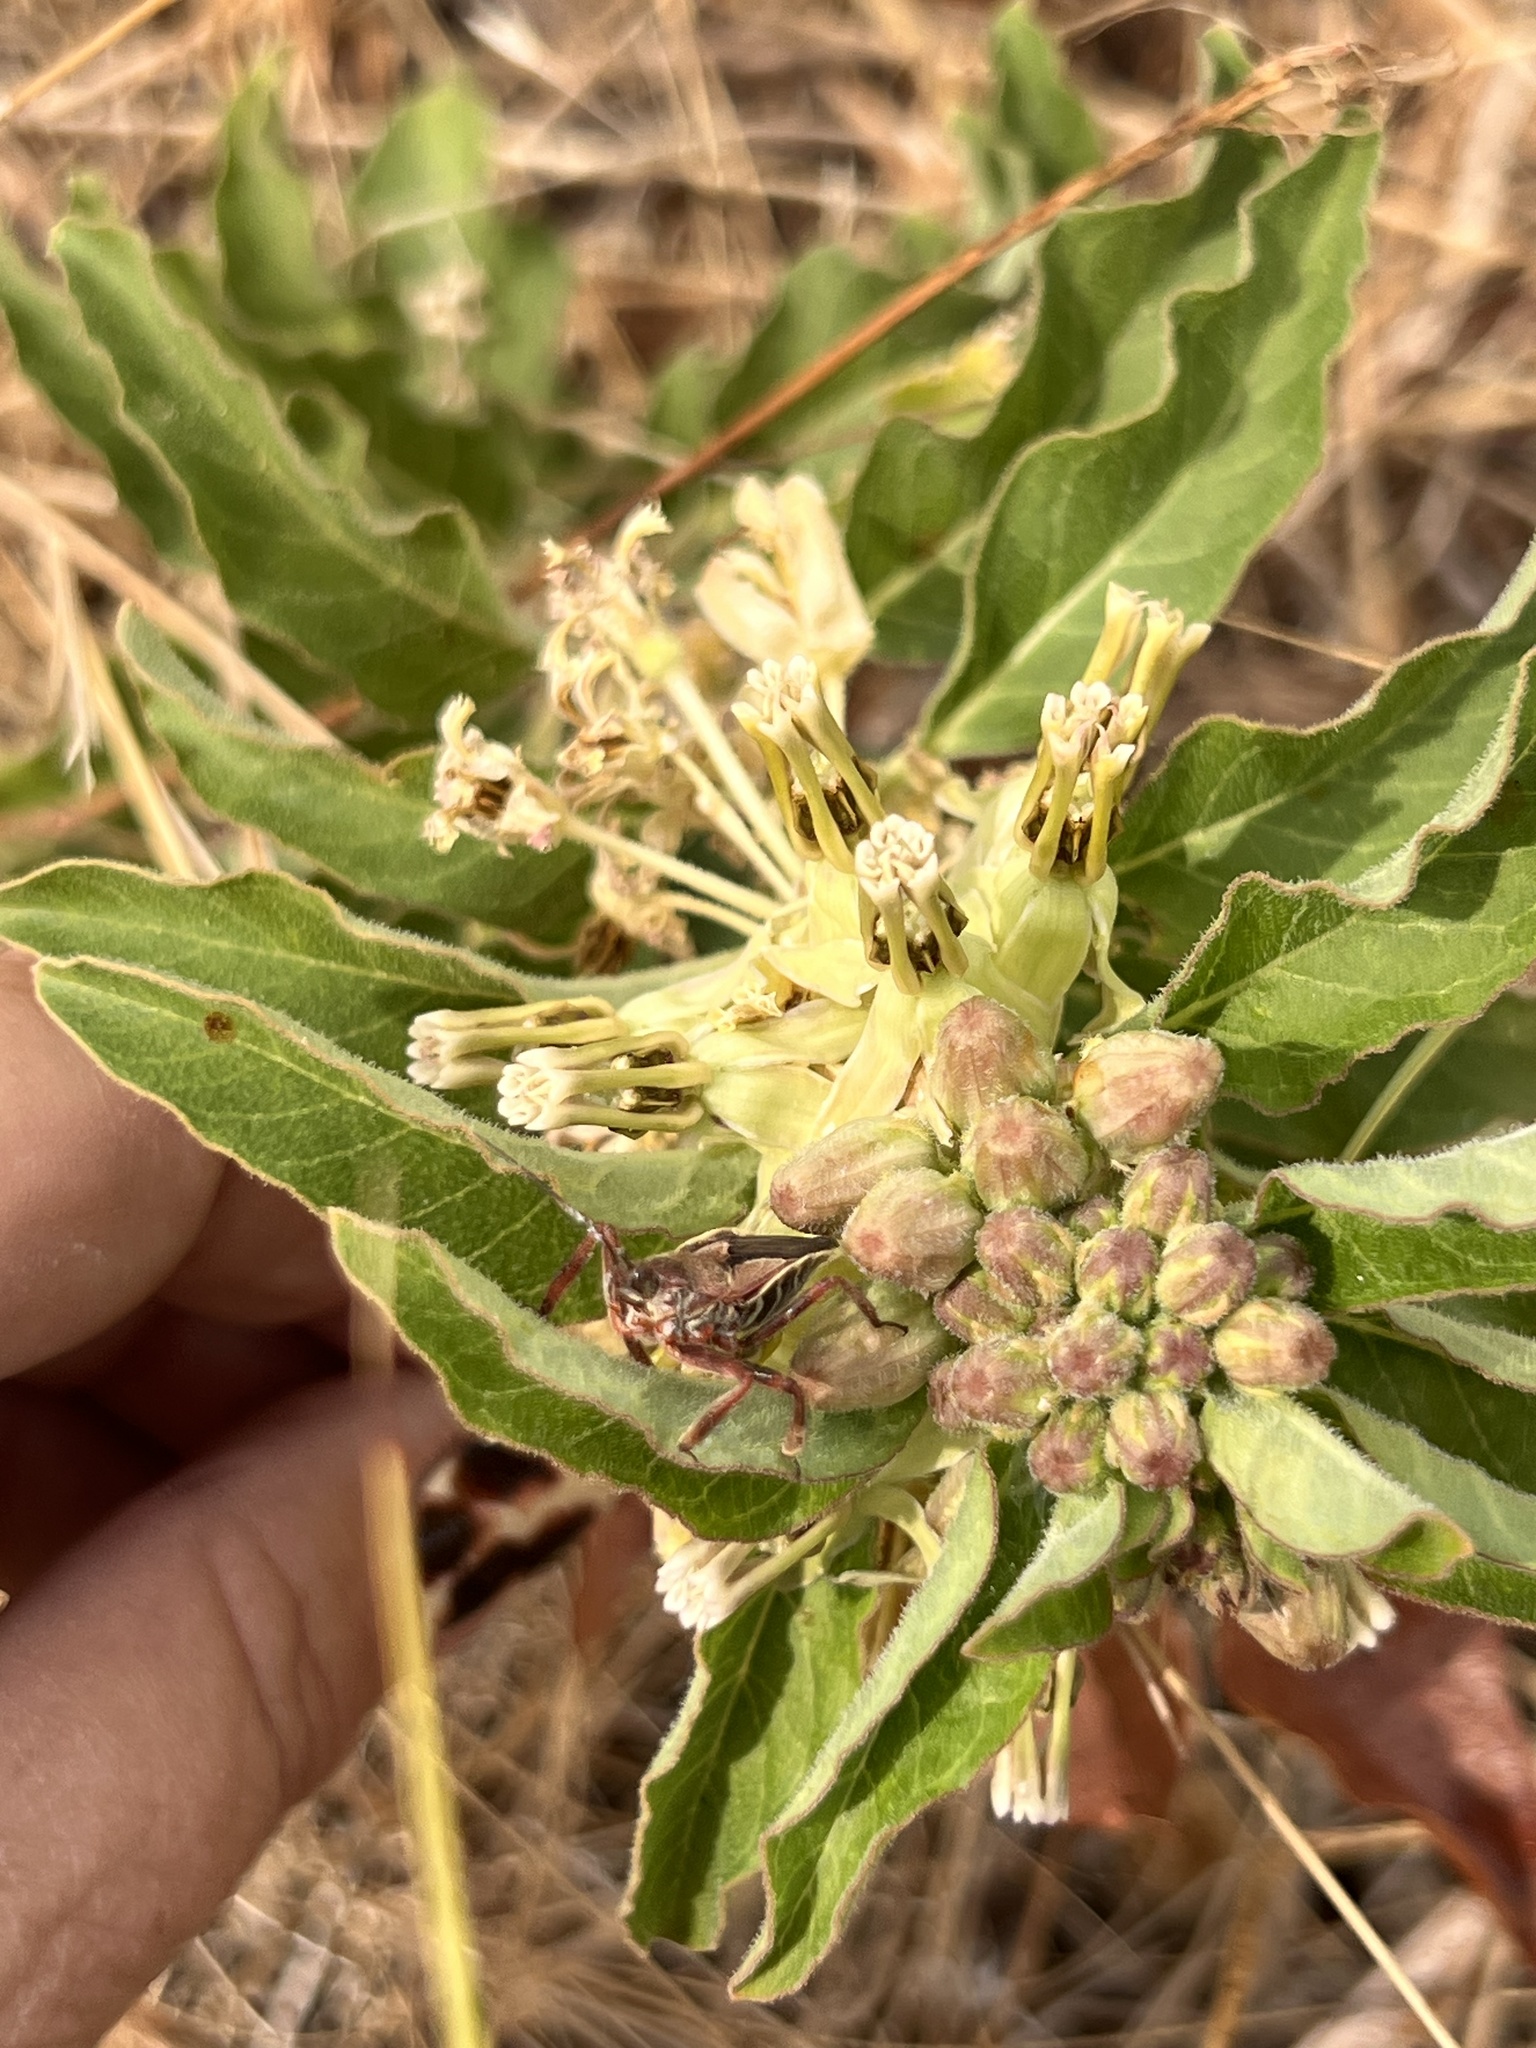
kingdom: Plantae
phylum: Tracheophyta
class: Magnoliopsida
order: Gentianales
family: Apocynaceae
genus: Asclepias
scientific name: Asclepias oenotheroides
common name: Zizotes milkweed
